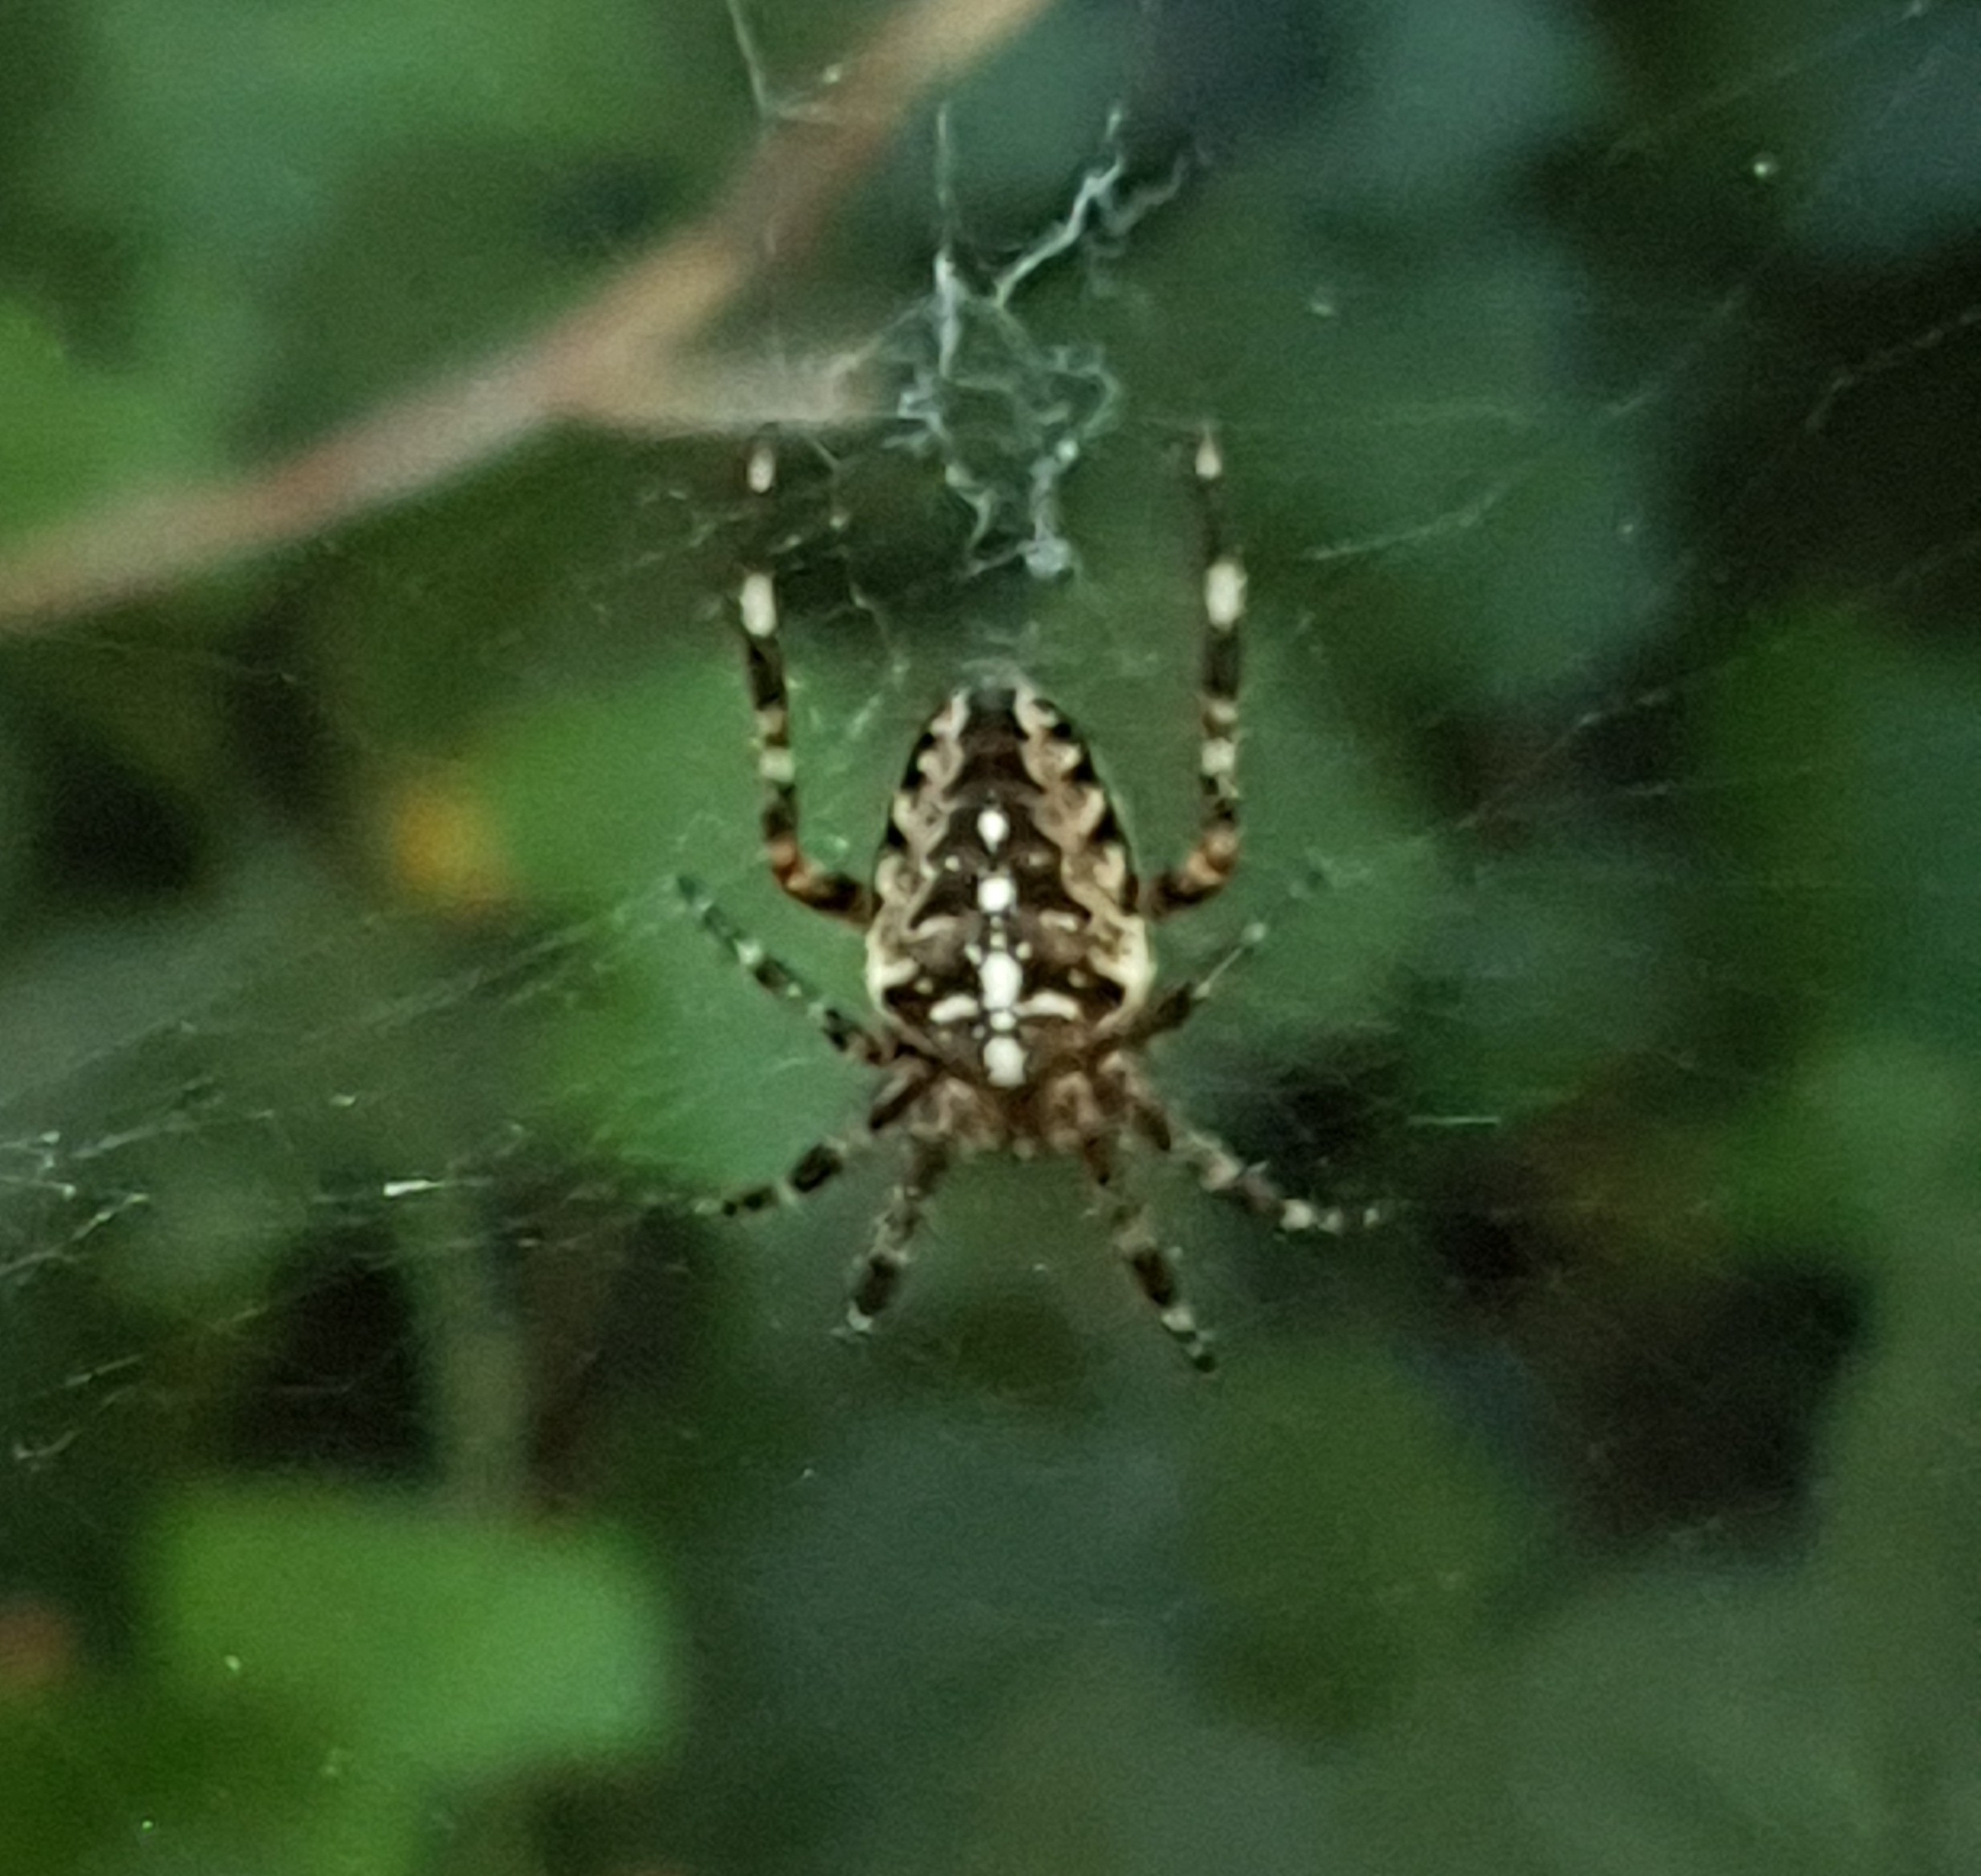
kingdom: Animalia
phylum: Arthropoda
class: Arachnida
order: Araneae
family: Araneidae
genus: Araneus
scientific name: Araneus diadematus
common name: Cross orbweaver
